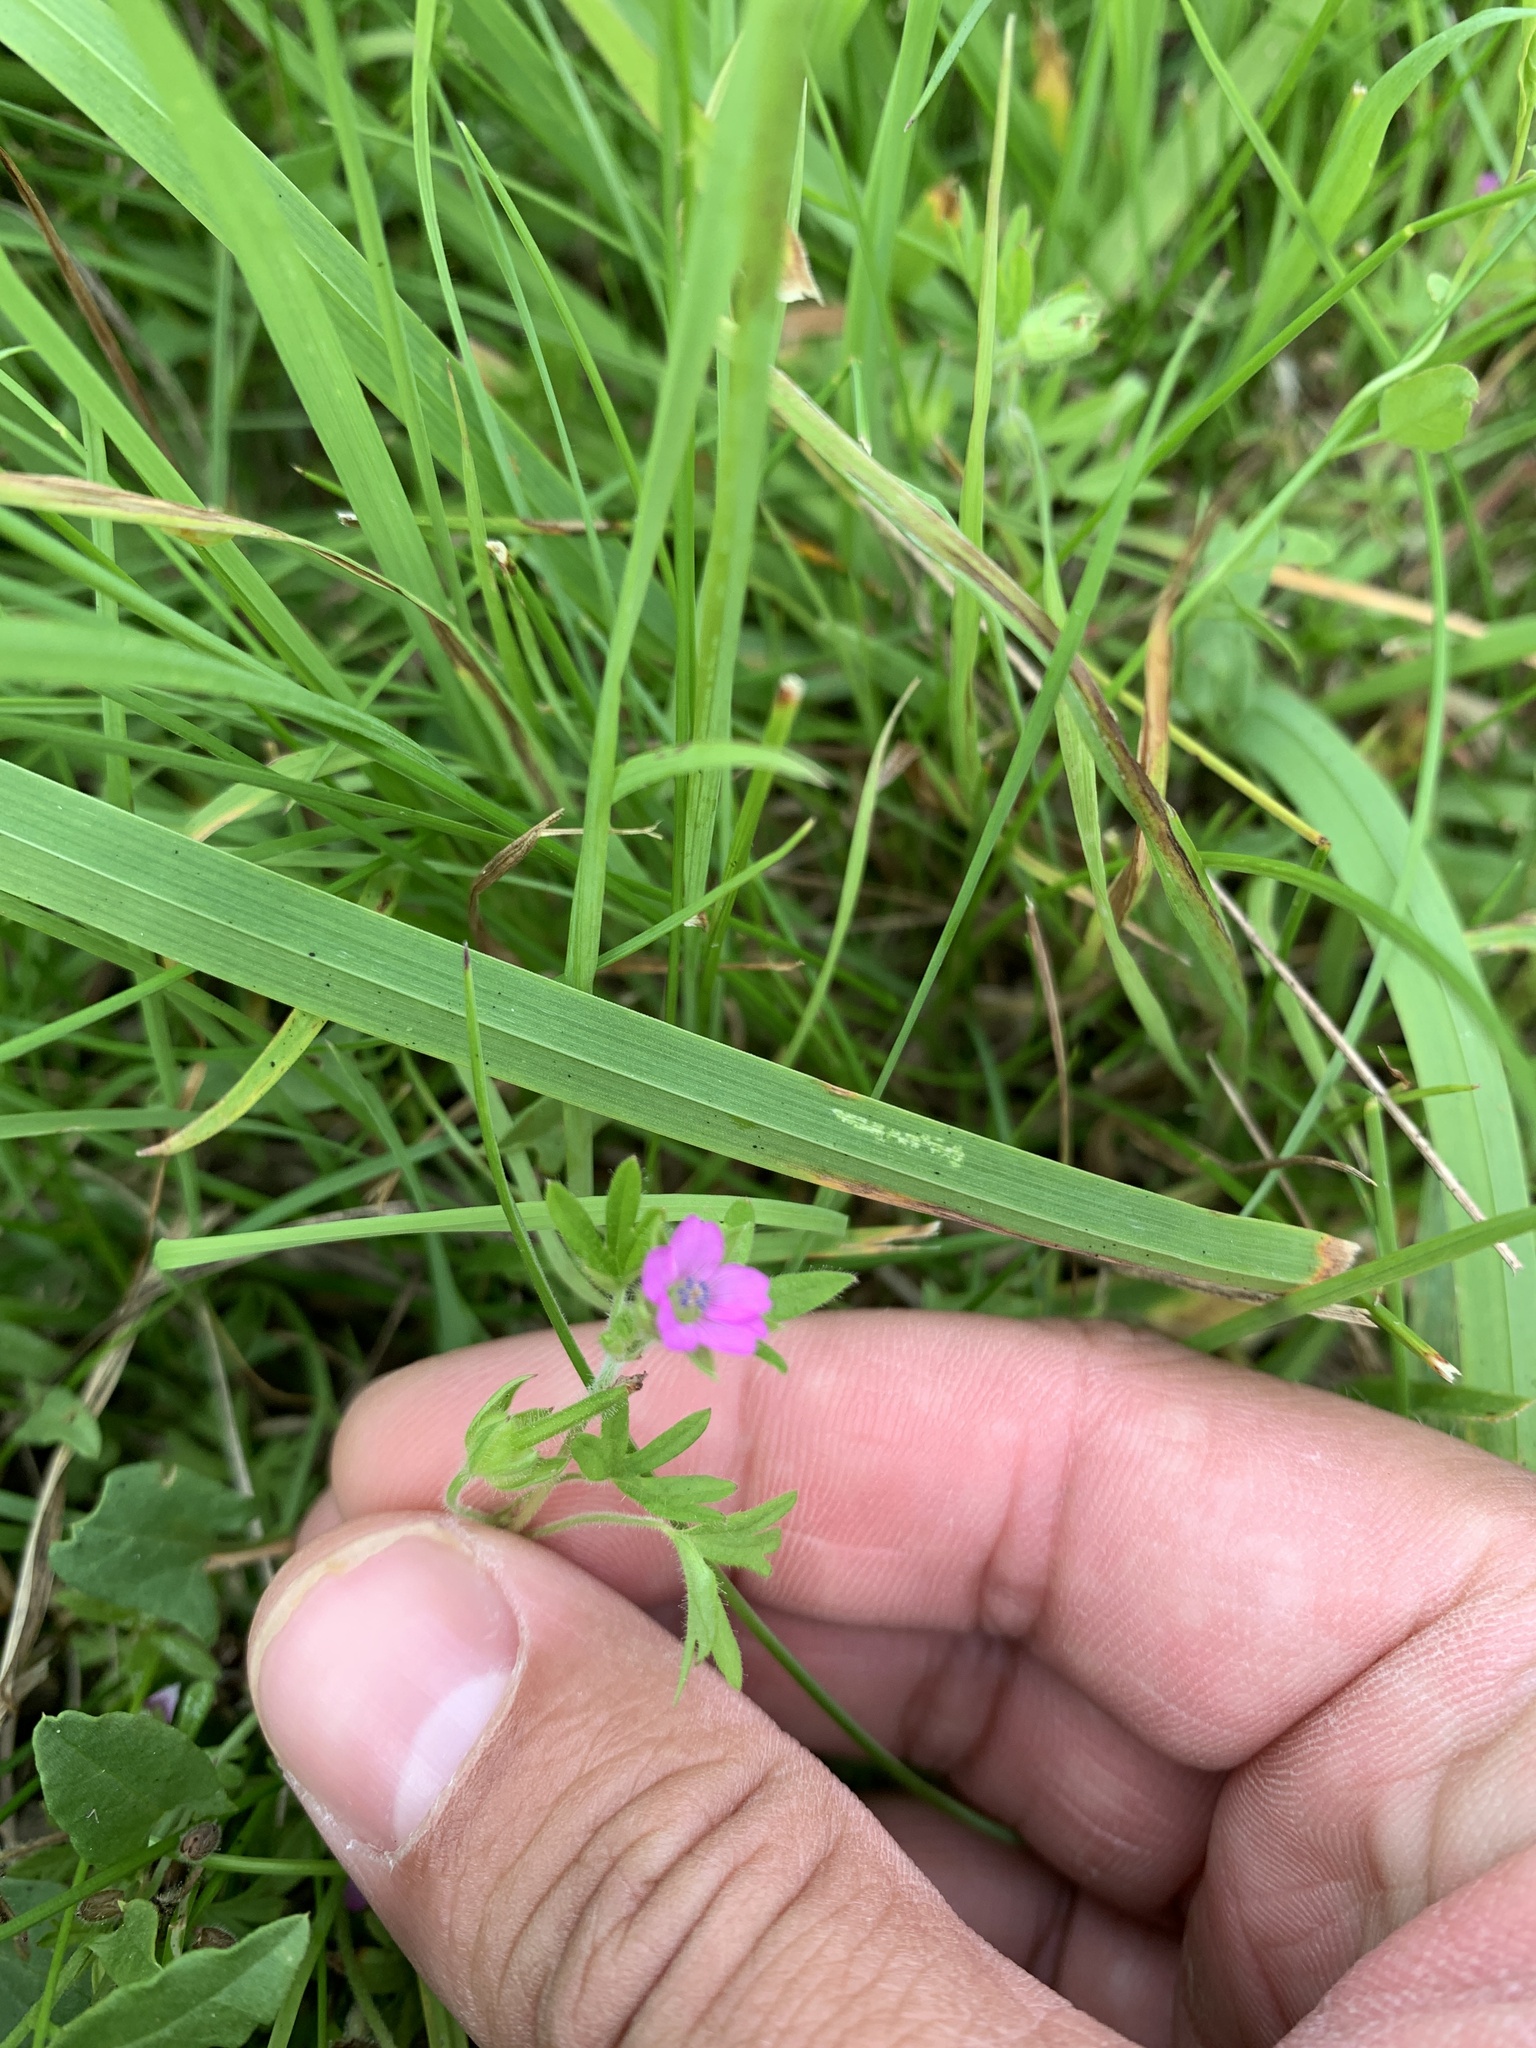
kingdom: Plantae
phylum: Tracheophyta
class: Magnoliopsida
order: Geraniales
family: Geraniaceae
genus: Geranium
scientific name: Geranium dissectum
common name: Cut-leaved crane's-bill
